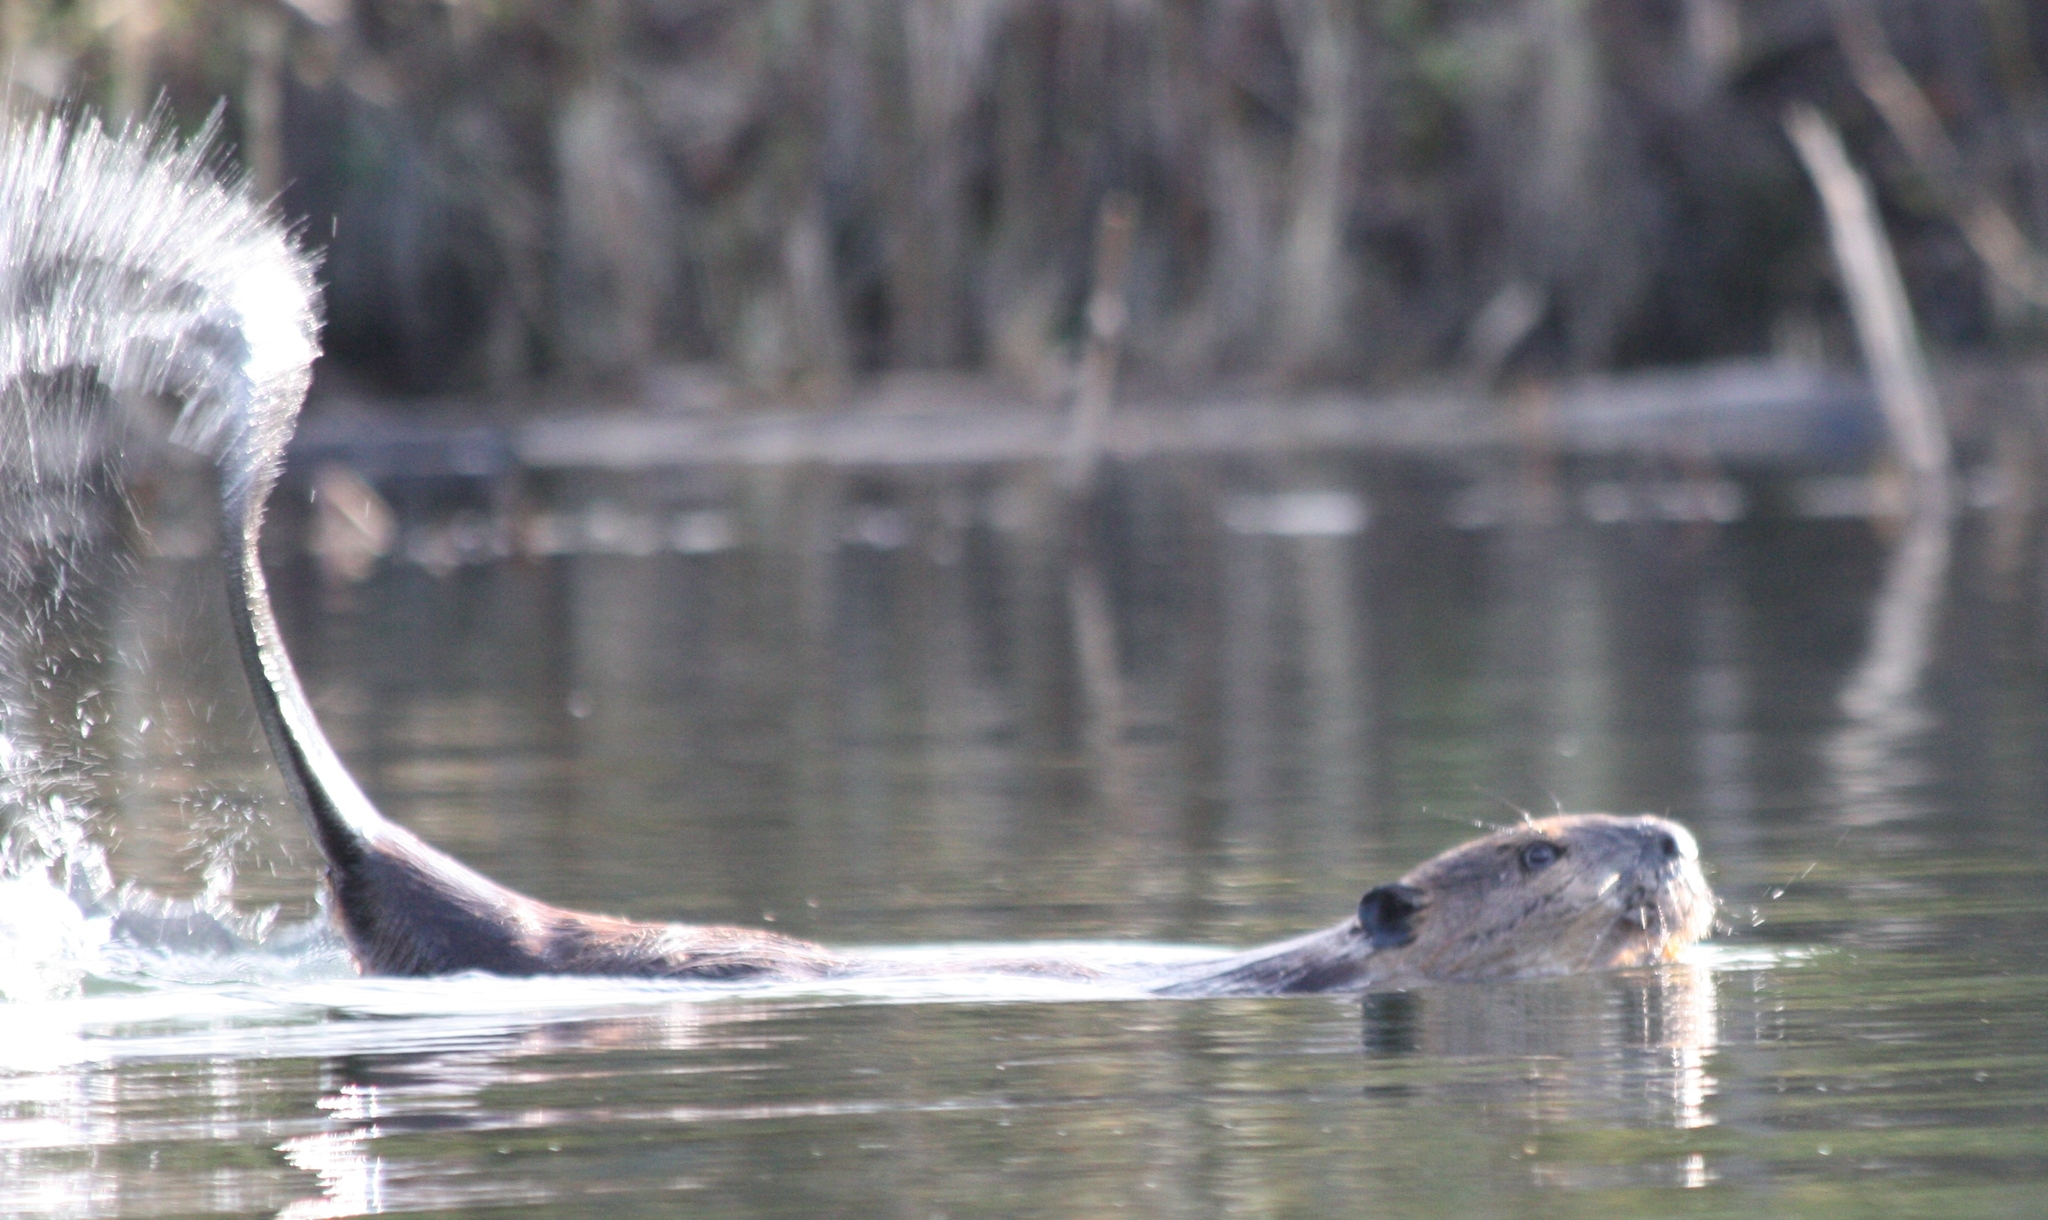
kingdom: Animalia
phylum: Chordata
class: Mammalia
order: Rodentia
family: Castoridae
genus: Castor
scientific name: Castor canadensis
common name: American beaver
